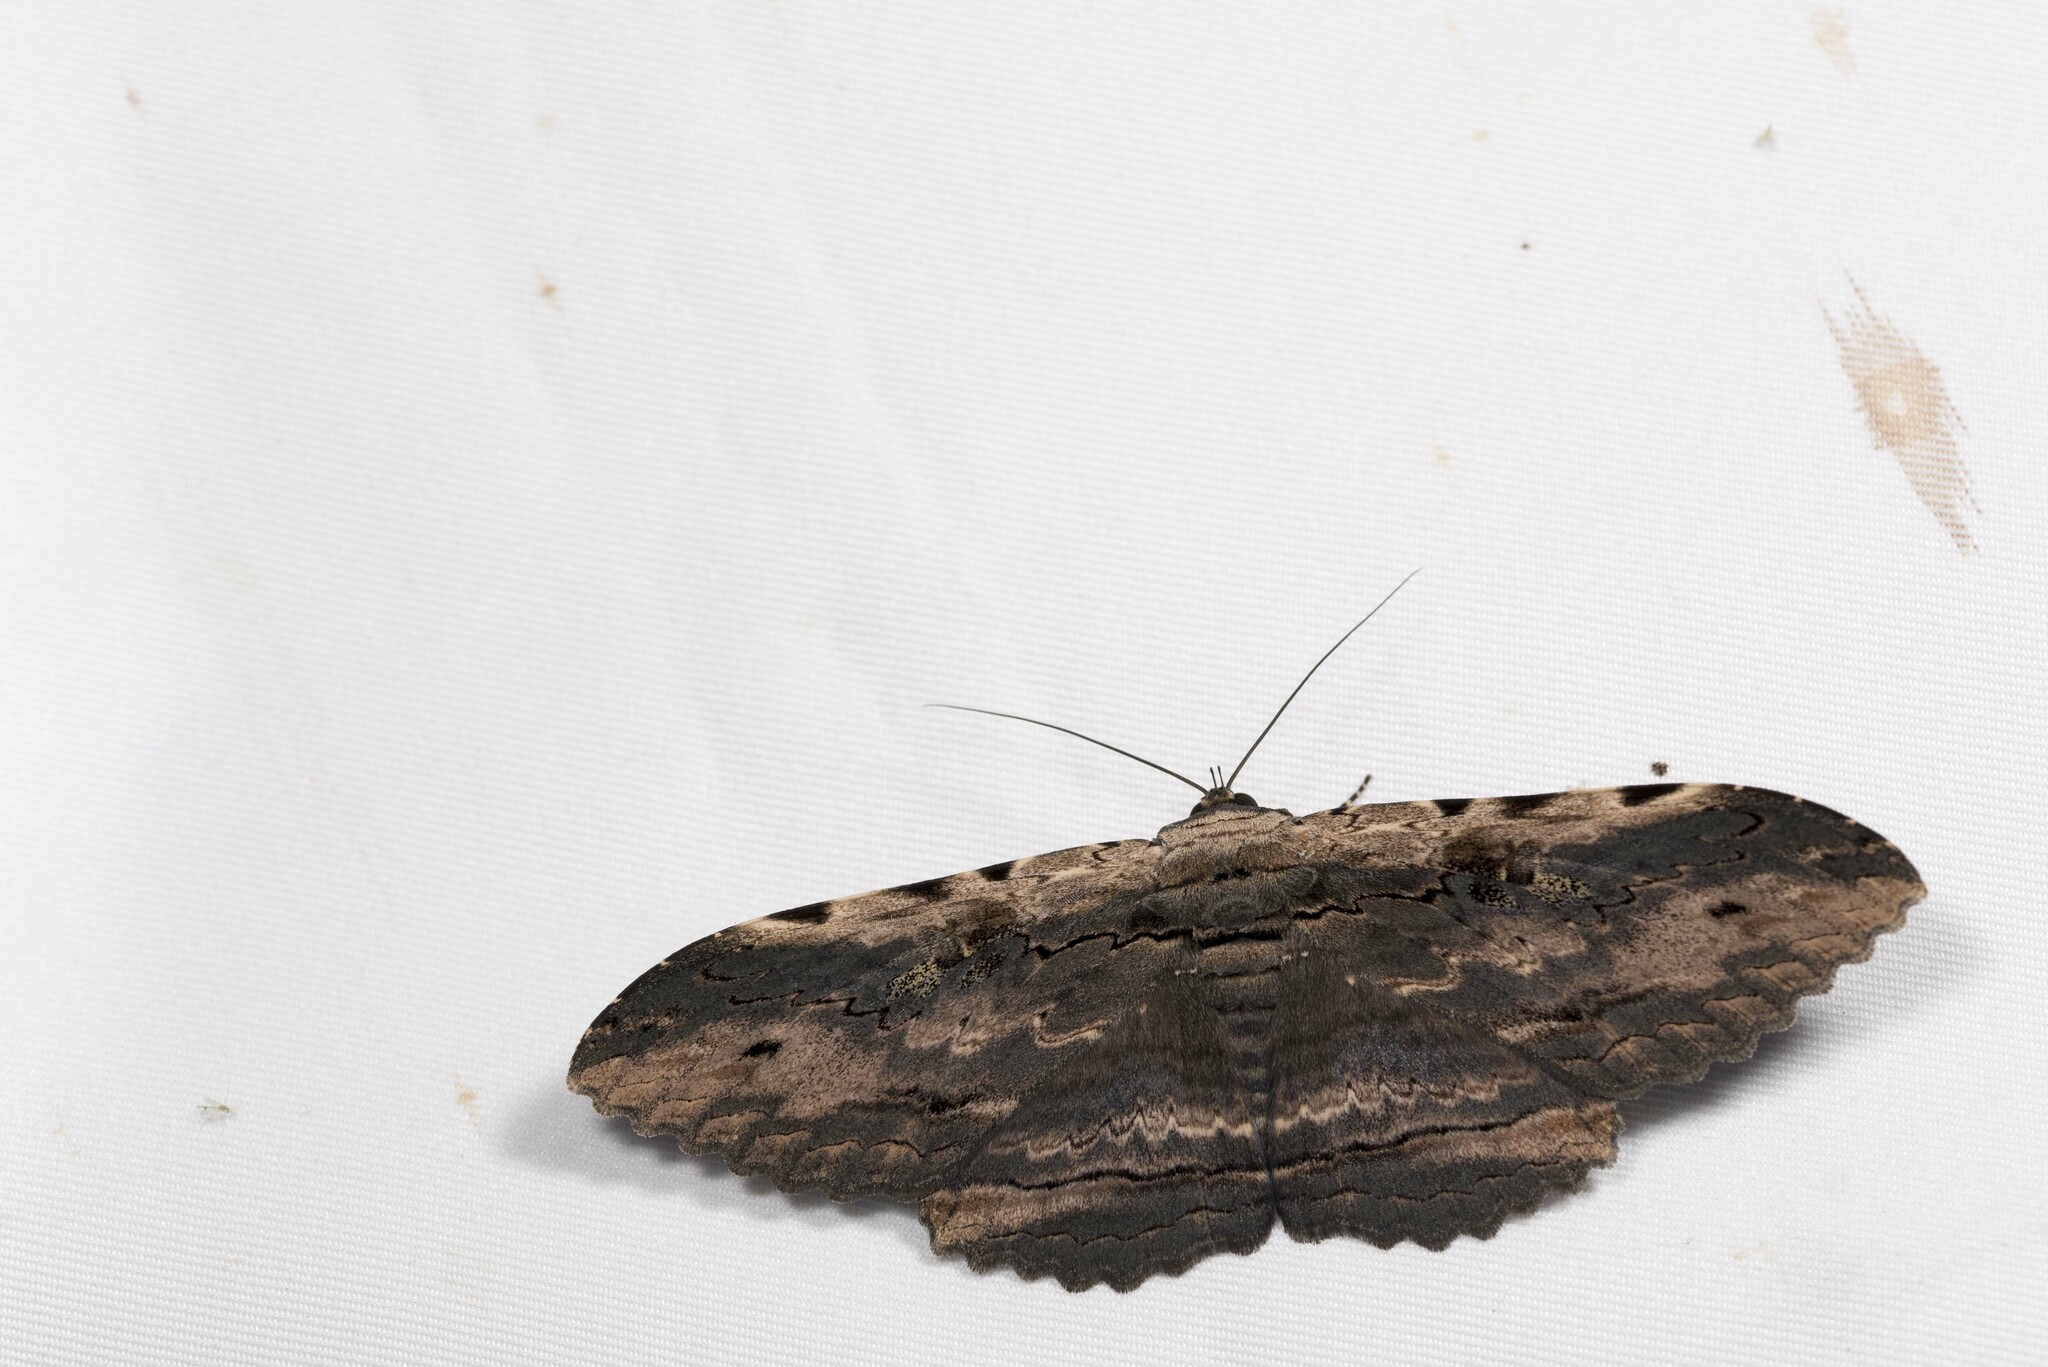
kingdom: Animalia
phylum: Arthropoda
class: Insecta
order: Lepidoptera
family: Erebidae
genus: Anisoneura
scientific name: Anisoneura aluco
